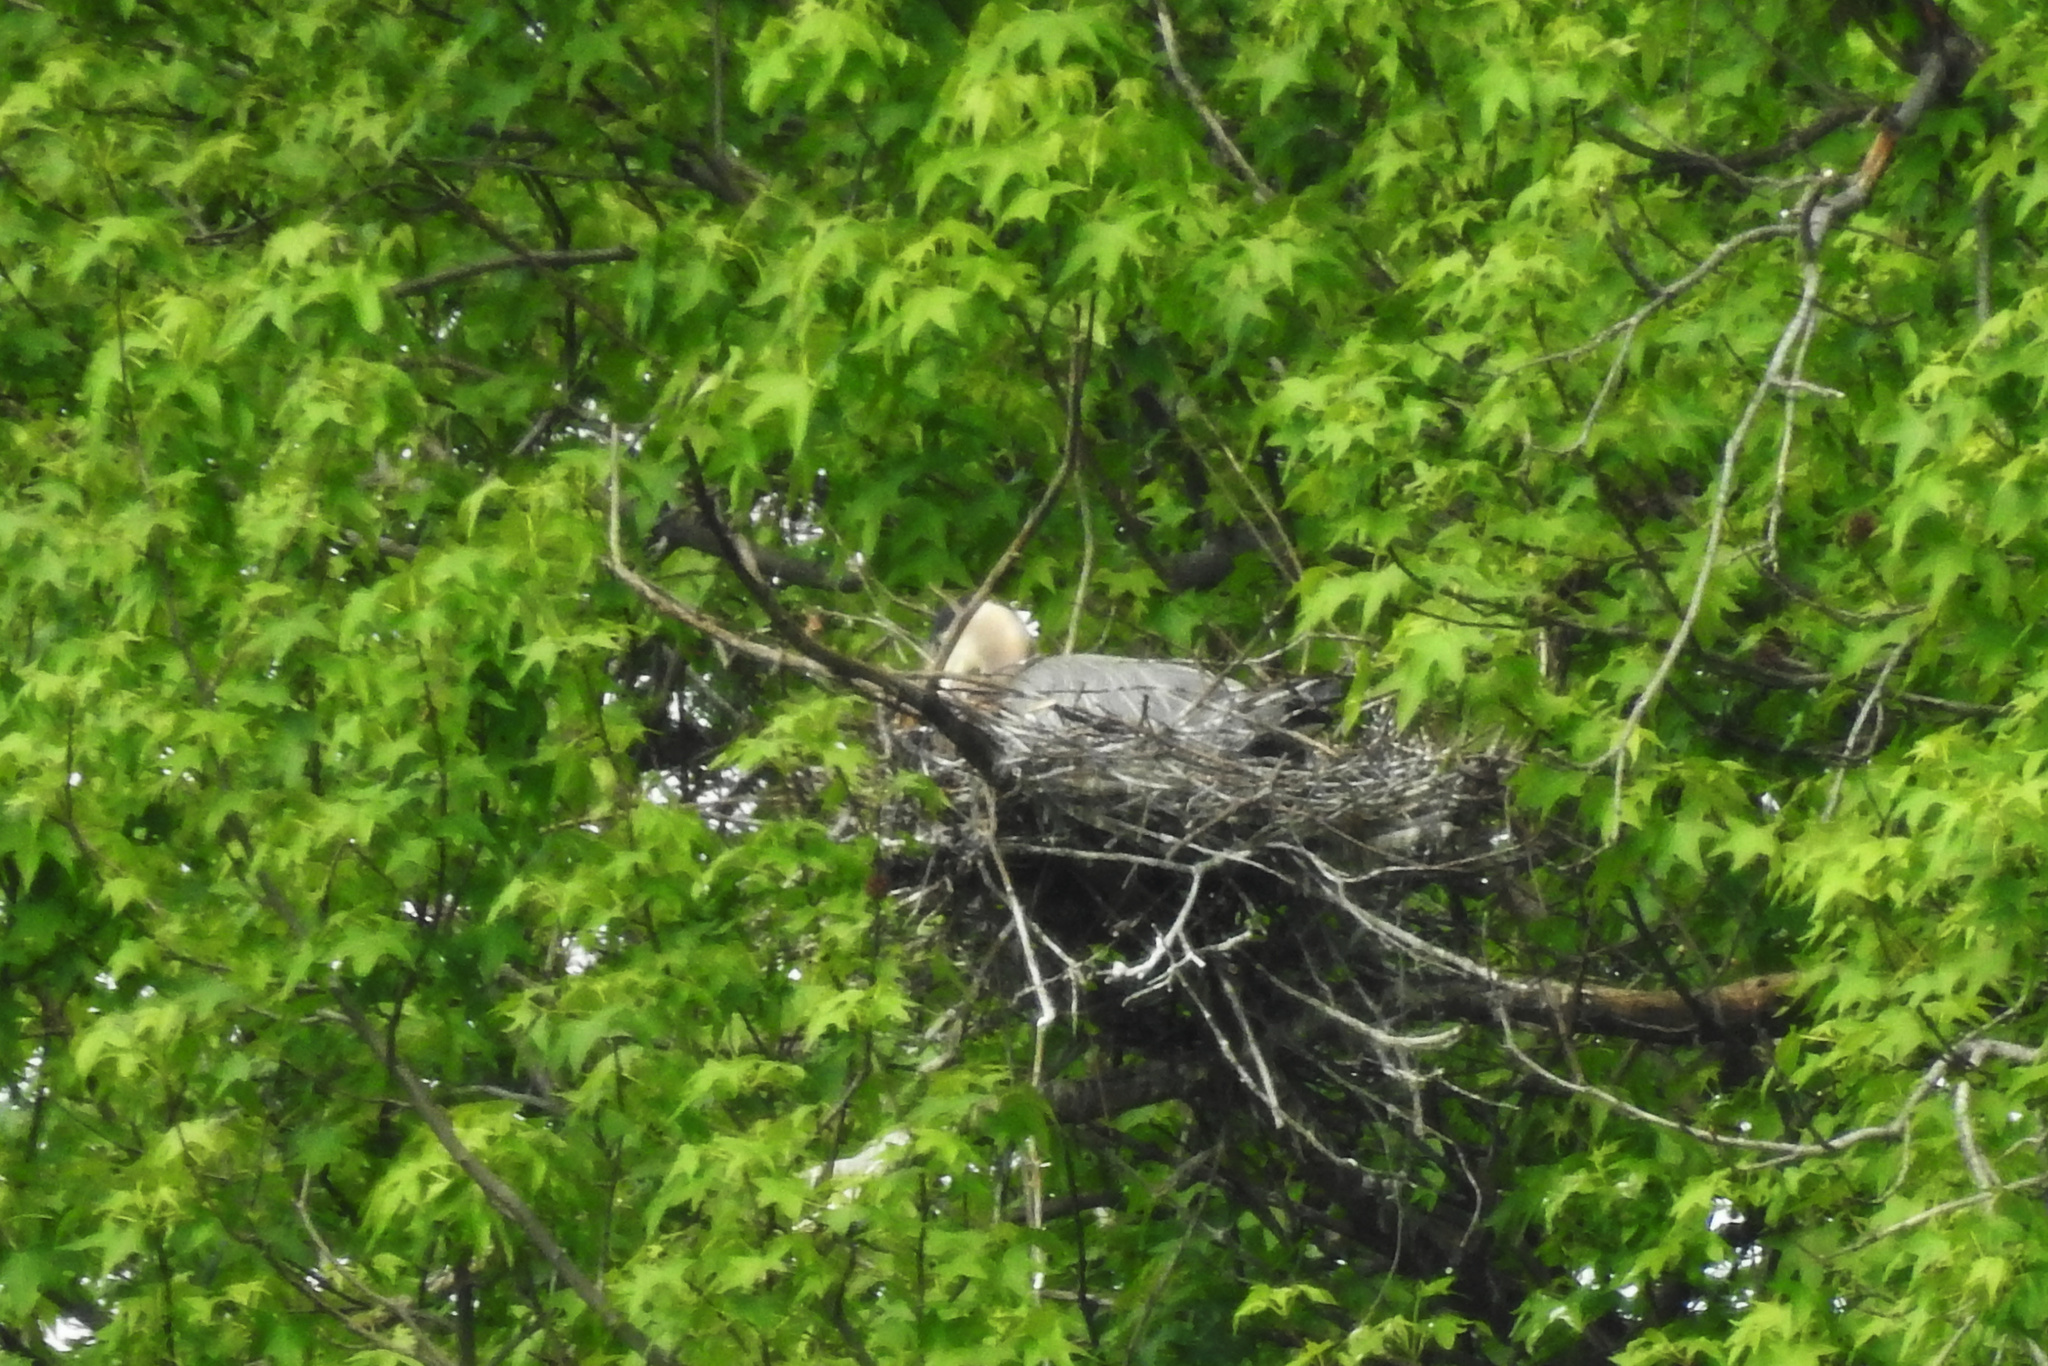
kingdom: Animalia
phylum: Chordata
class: Aves
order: Pelecaniformes
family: Ardeidae
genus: Ardea
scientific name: Ardea herodias
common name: Great blue heron
